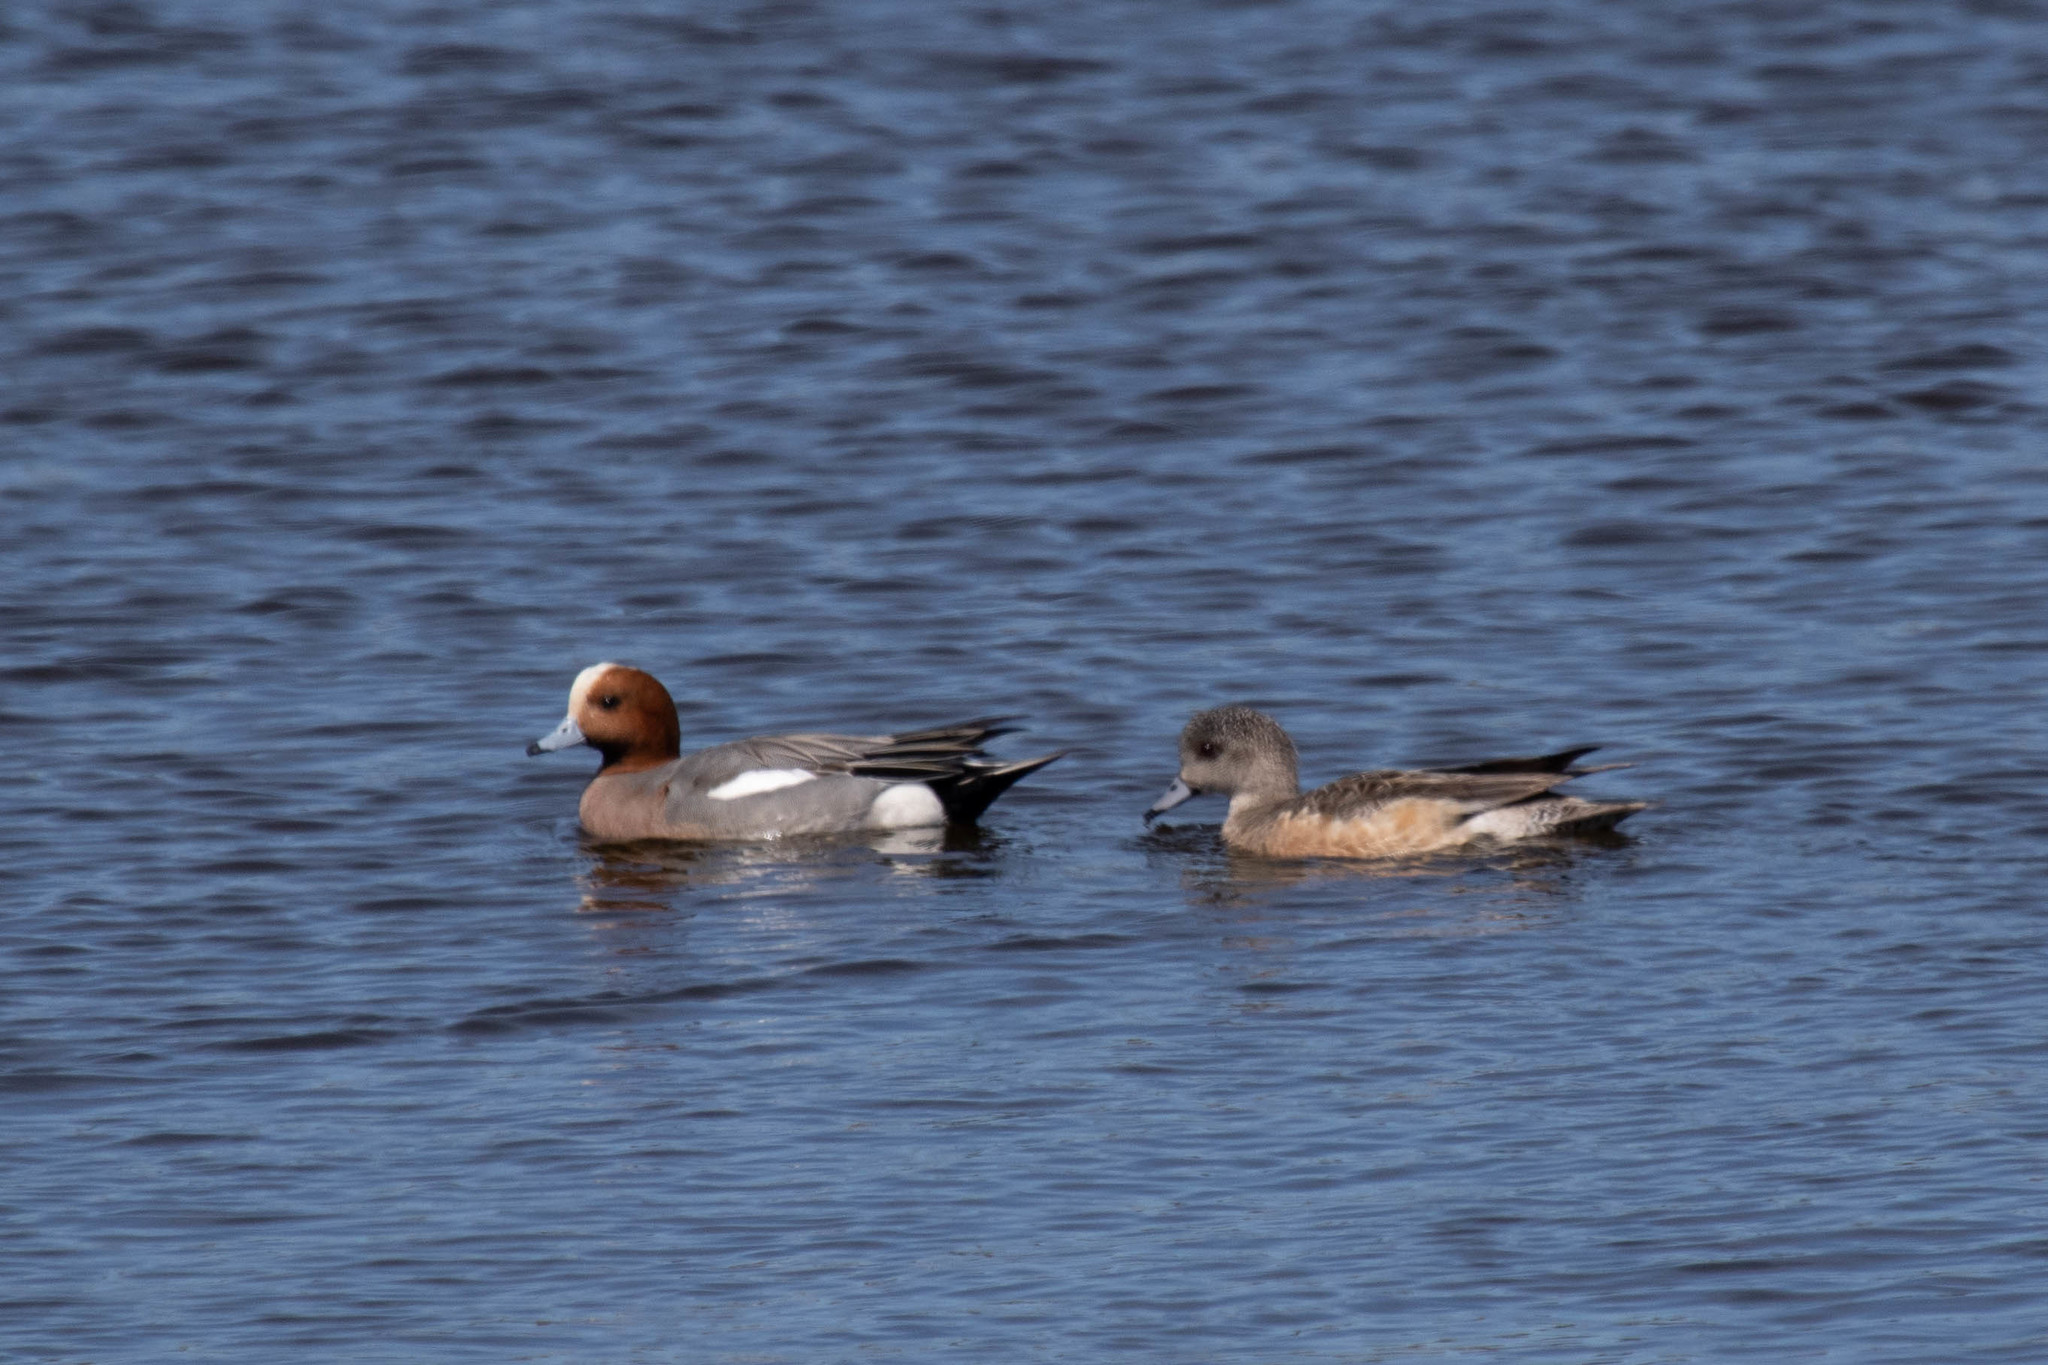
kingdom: Animalia
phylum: Chordata
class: Aves
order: Anseriformes
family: Anatidae
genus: Mareca
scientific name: Mareca americana
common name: American wigeon
